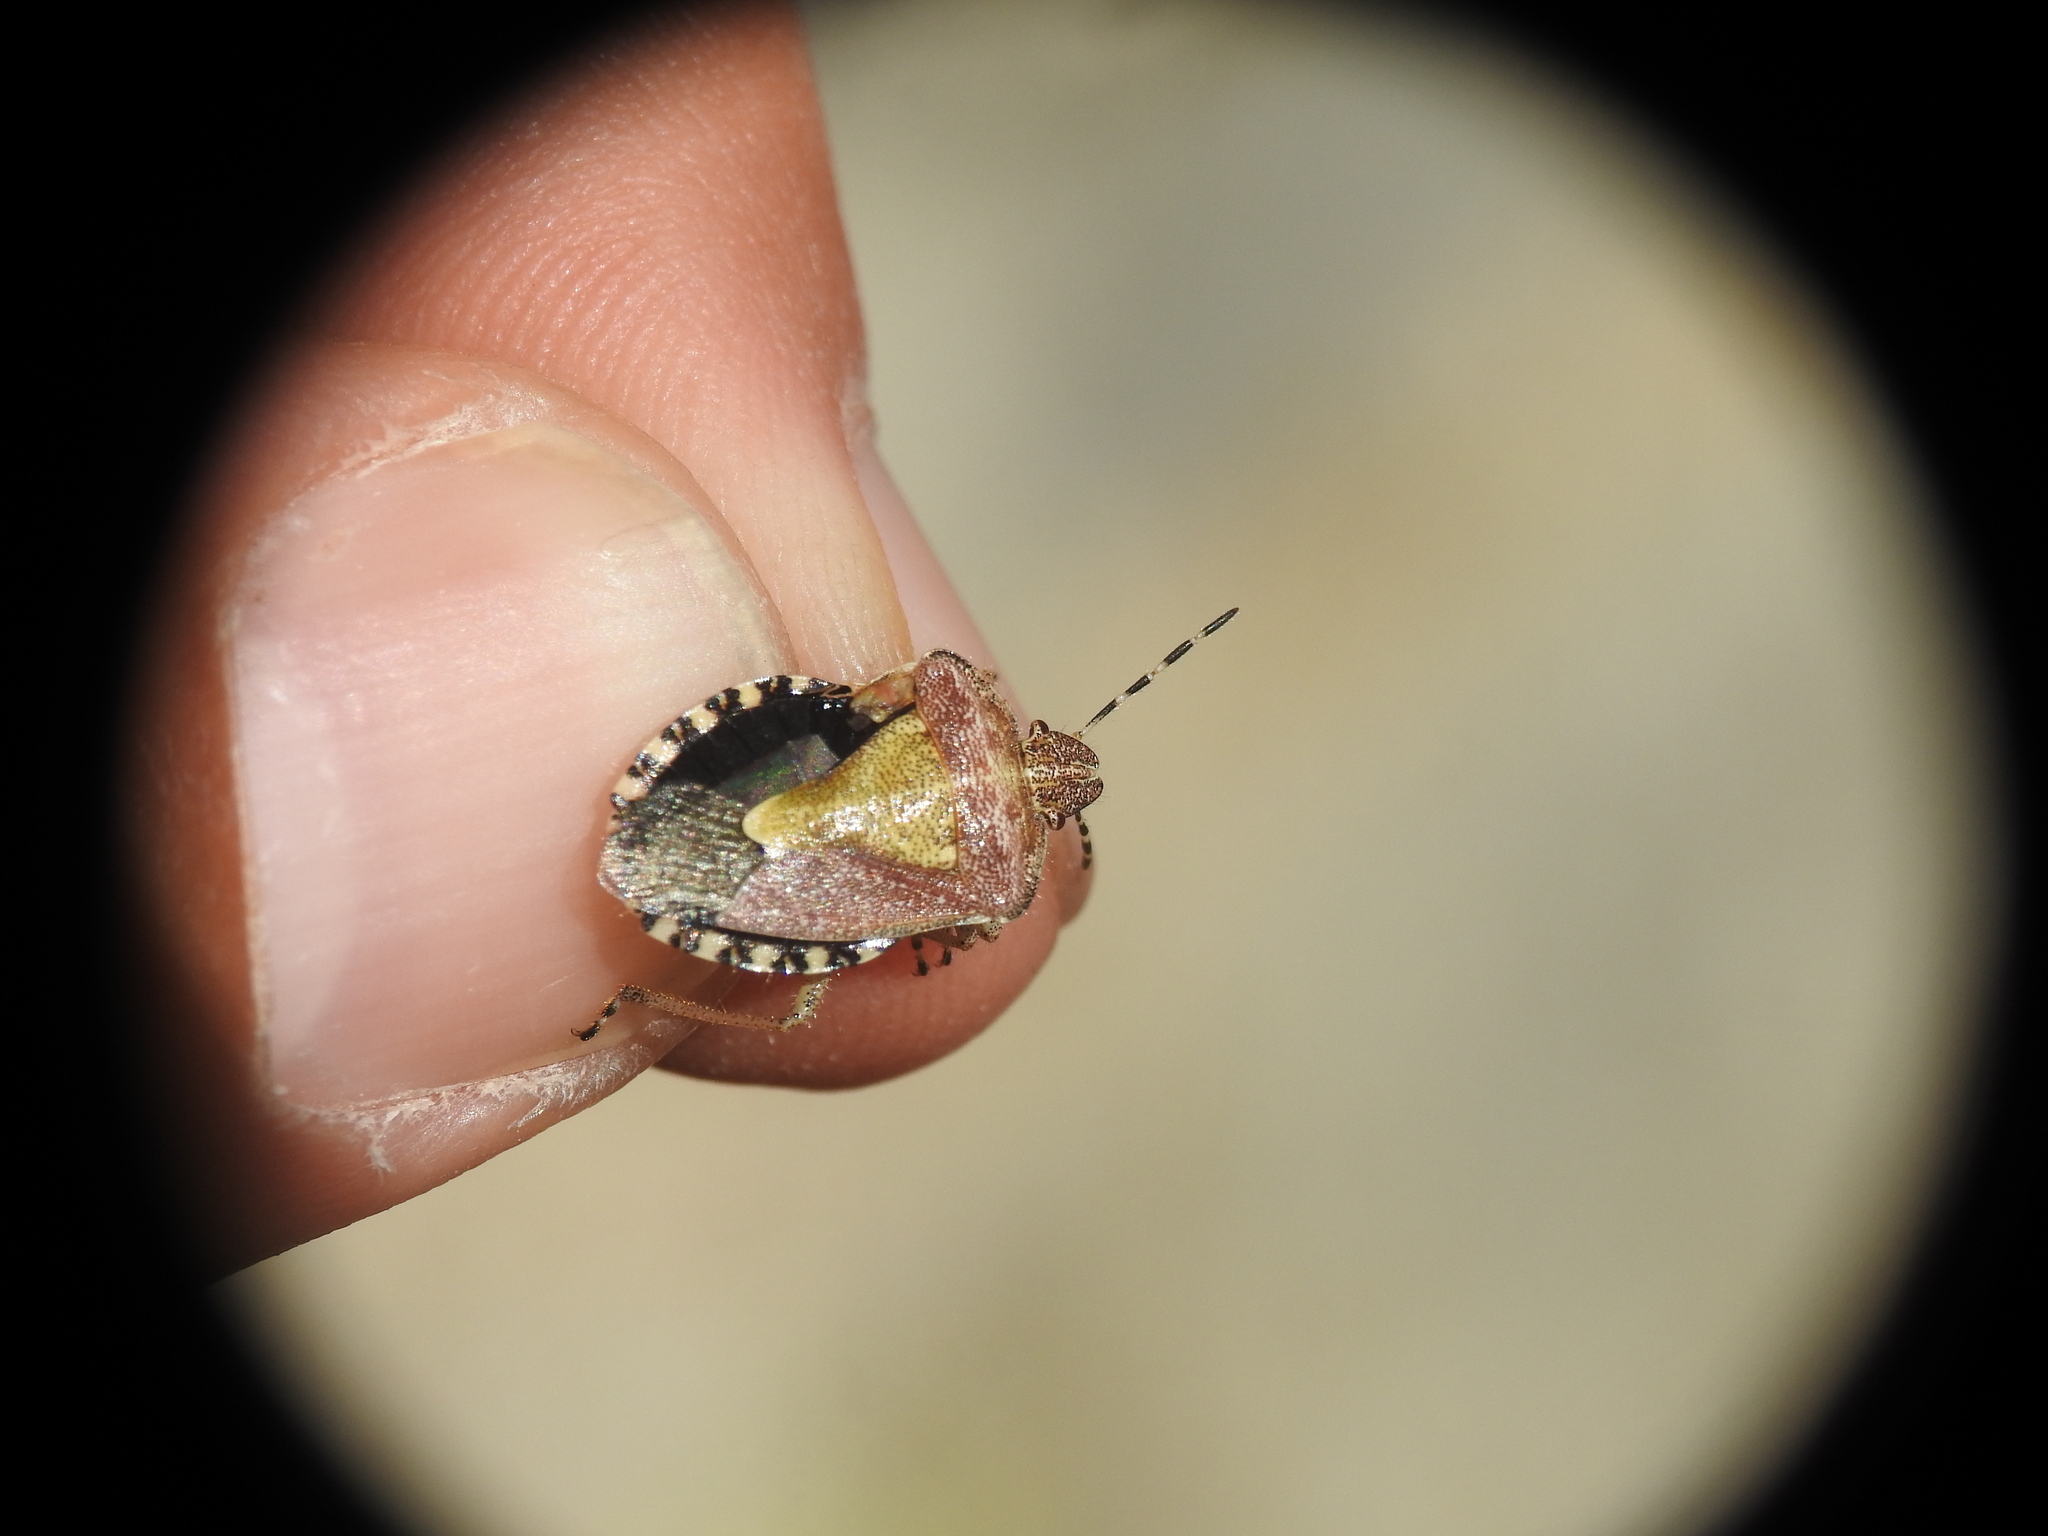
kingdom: Animalia
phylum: Arthropoda
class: Insecta
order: Hemiptera
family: Pentatomidae
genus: Dolycoris
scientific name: Dolycoris baccarum
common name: Sloe bug
